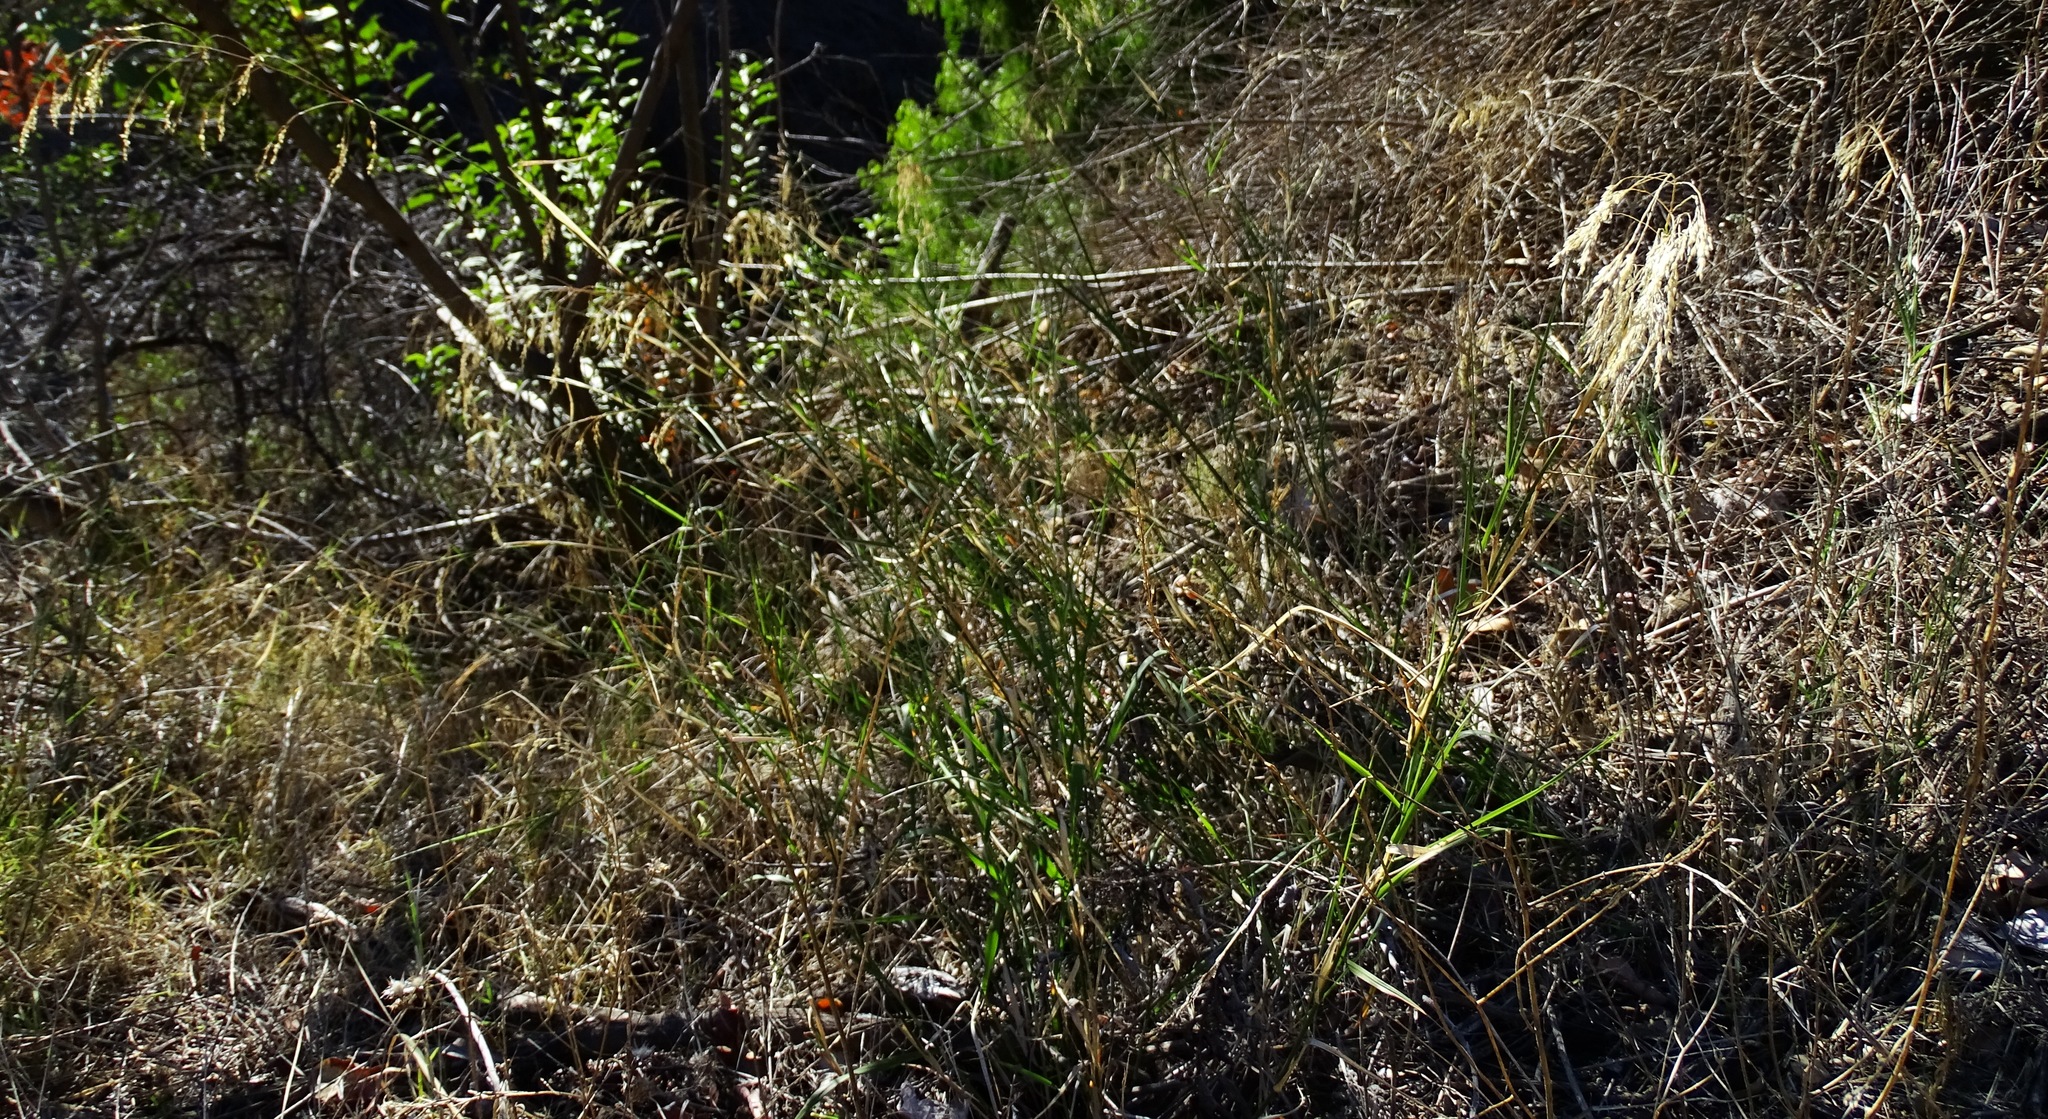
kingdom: Plantae
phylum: Tracheophyta
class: Liliopsida
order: Poales
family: Poaceae
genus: Oloptum
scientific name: Oloptum miliaceum
